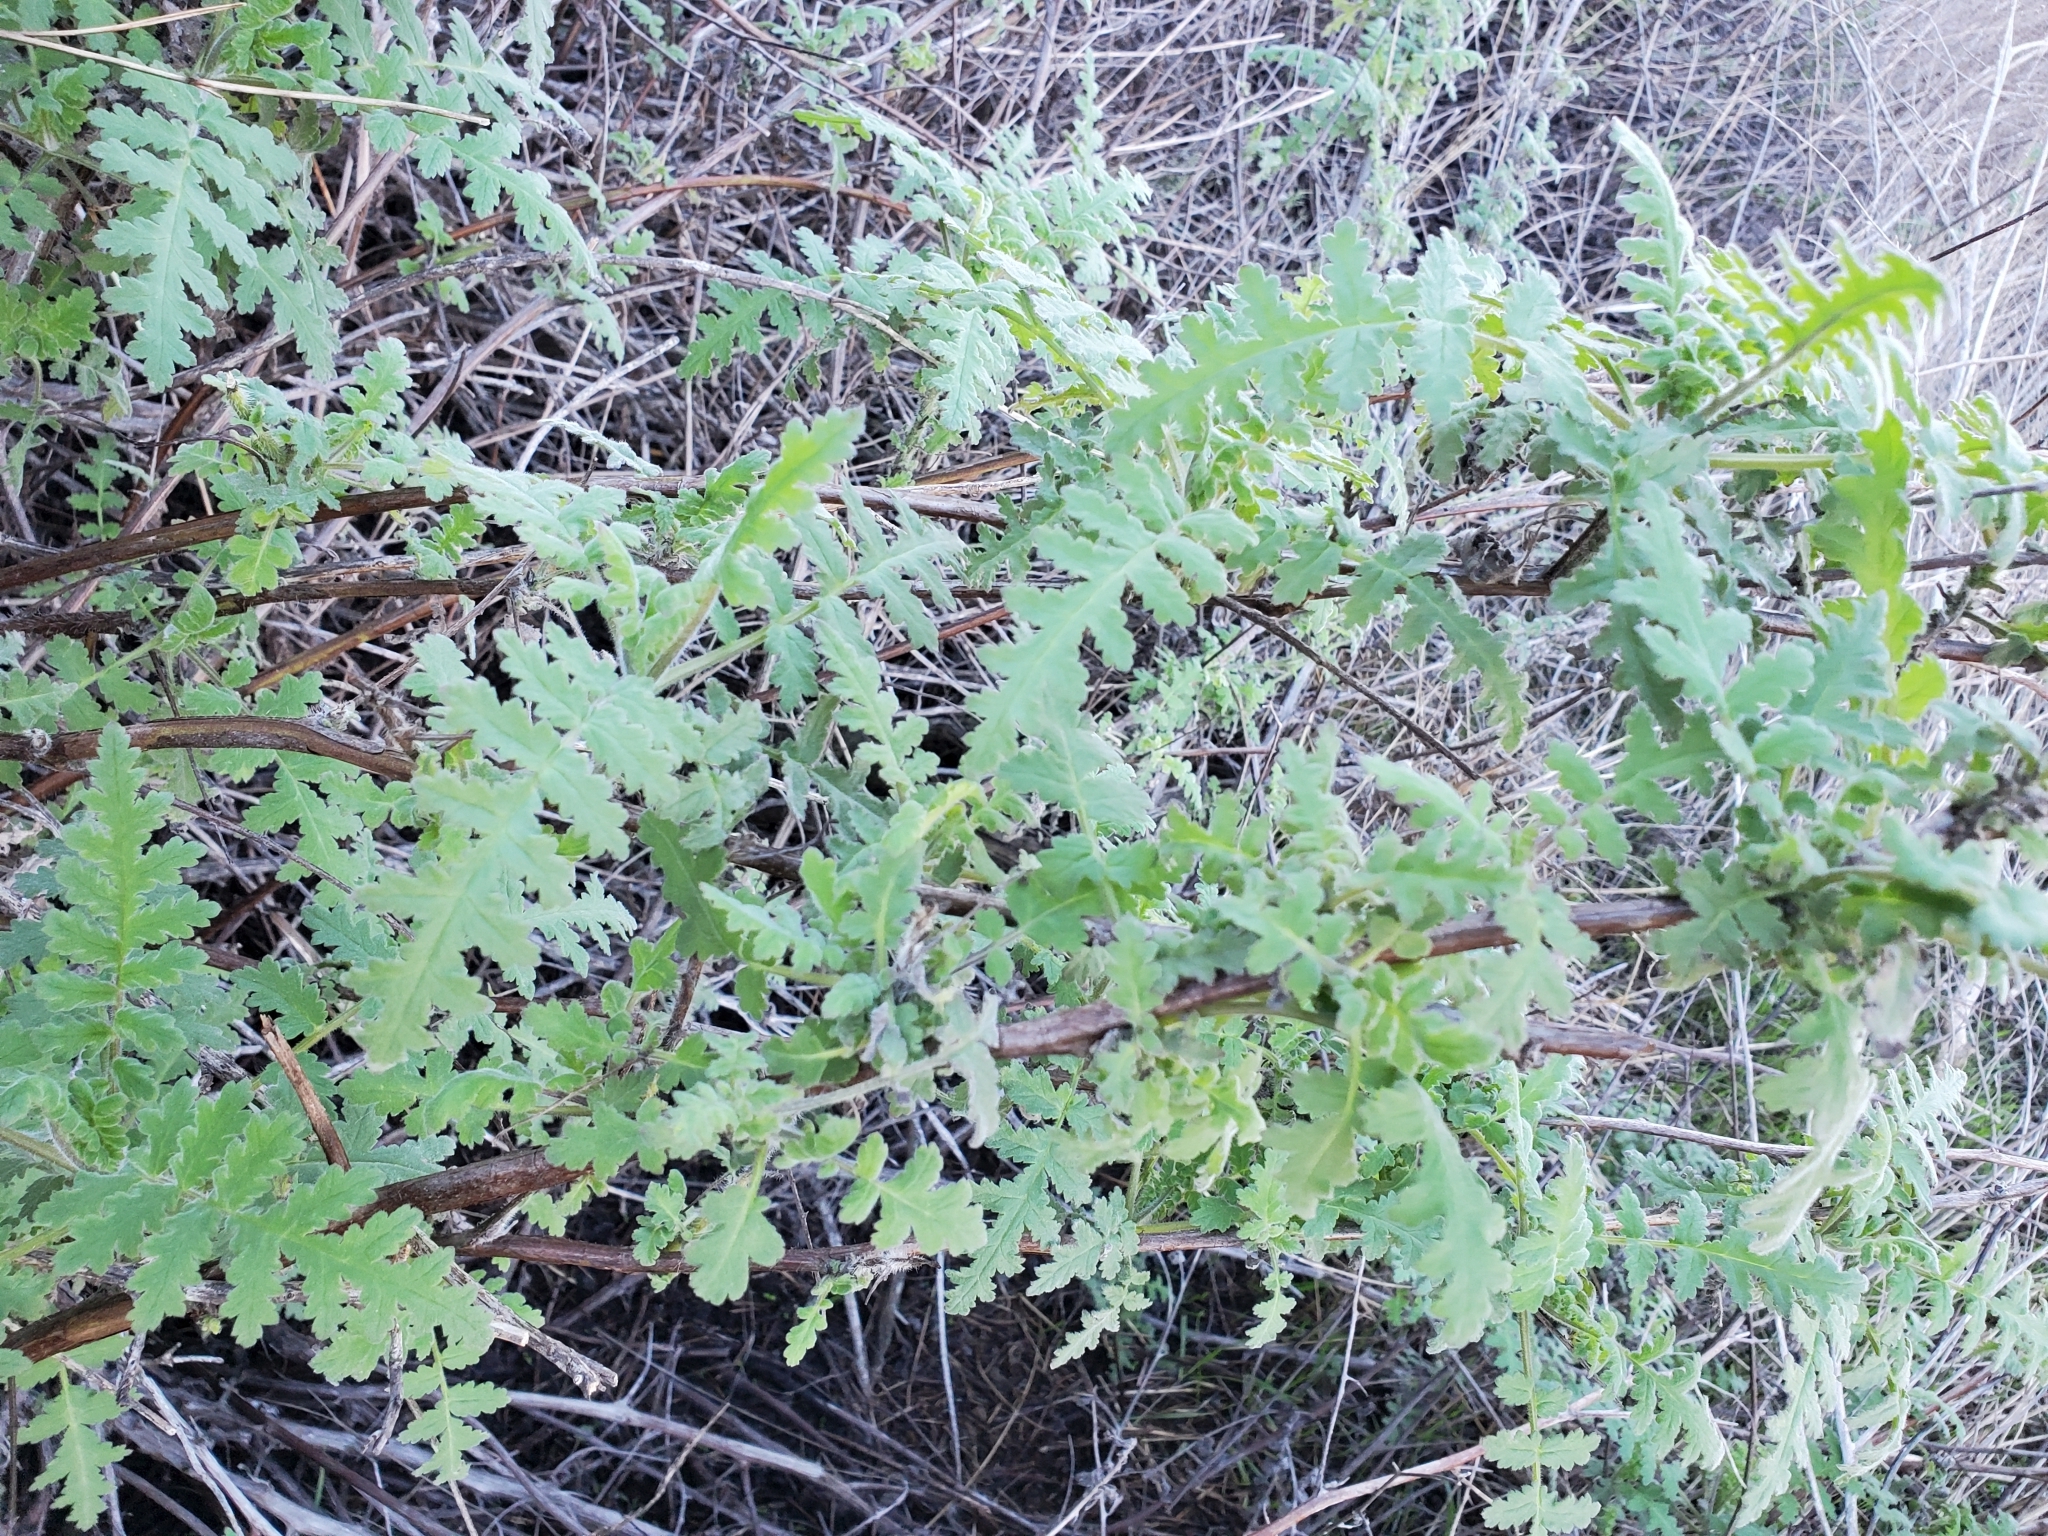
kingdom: Plantae
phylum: Tracheophyta
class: Magnoliopsida
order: Boraginales
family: Hydrophyllaceae
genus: Phacelia
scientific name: Phacelia ramosissima
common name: Branching phacelia
